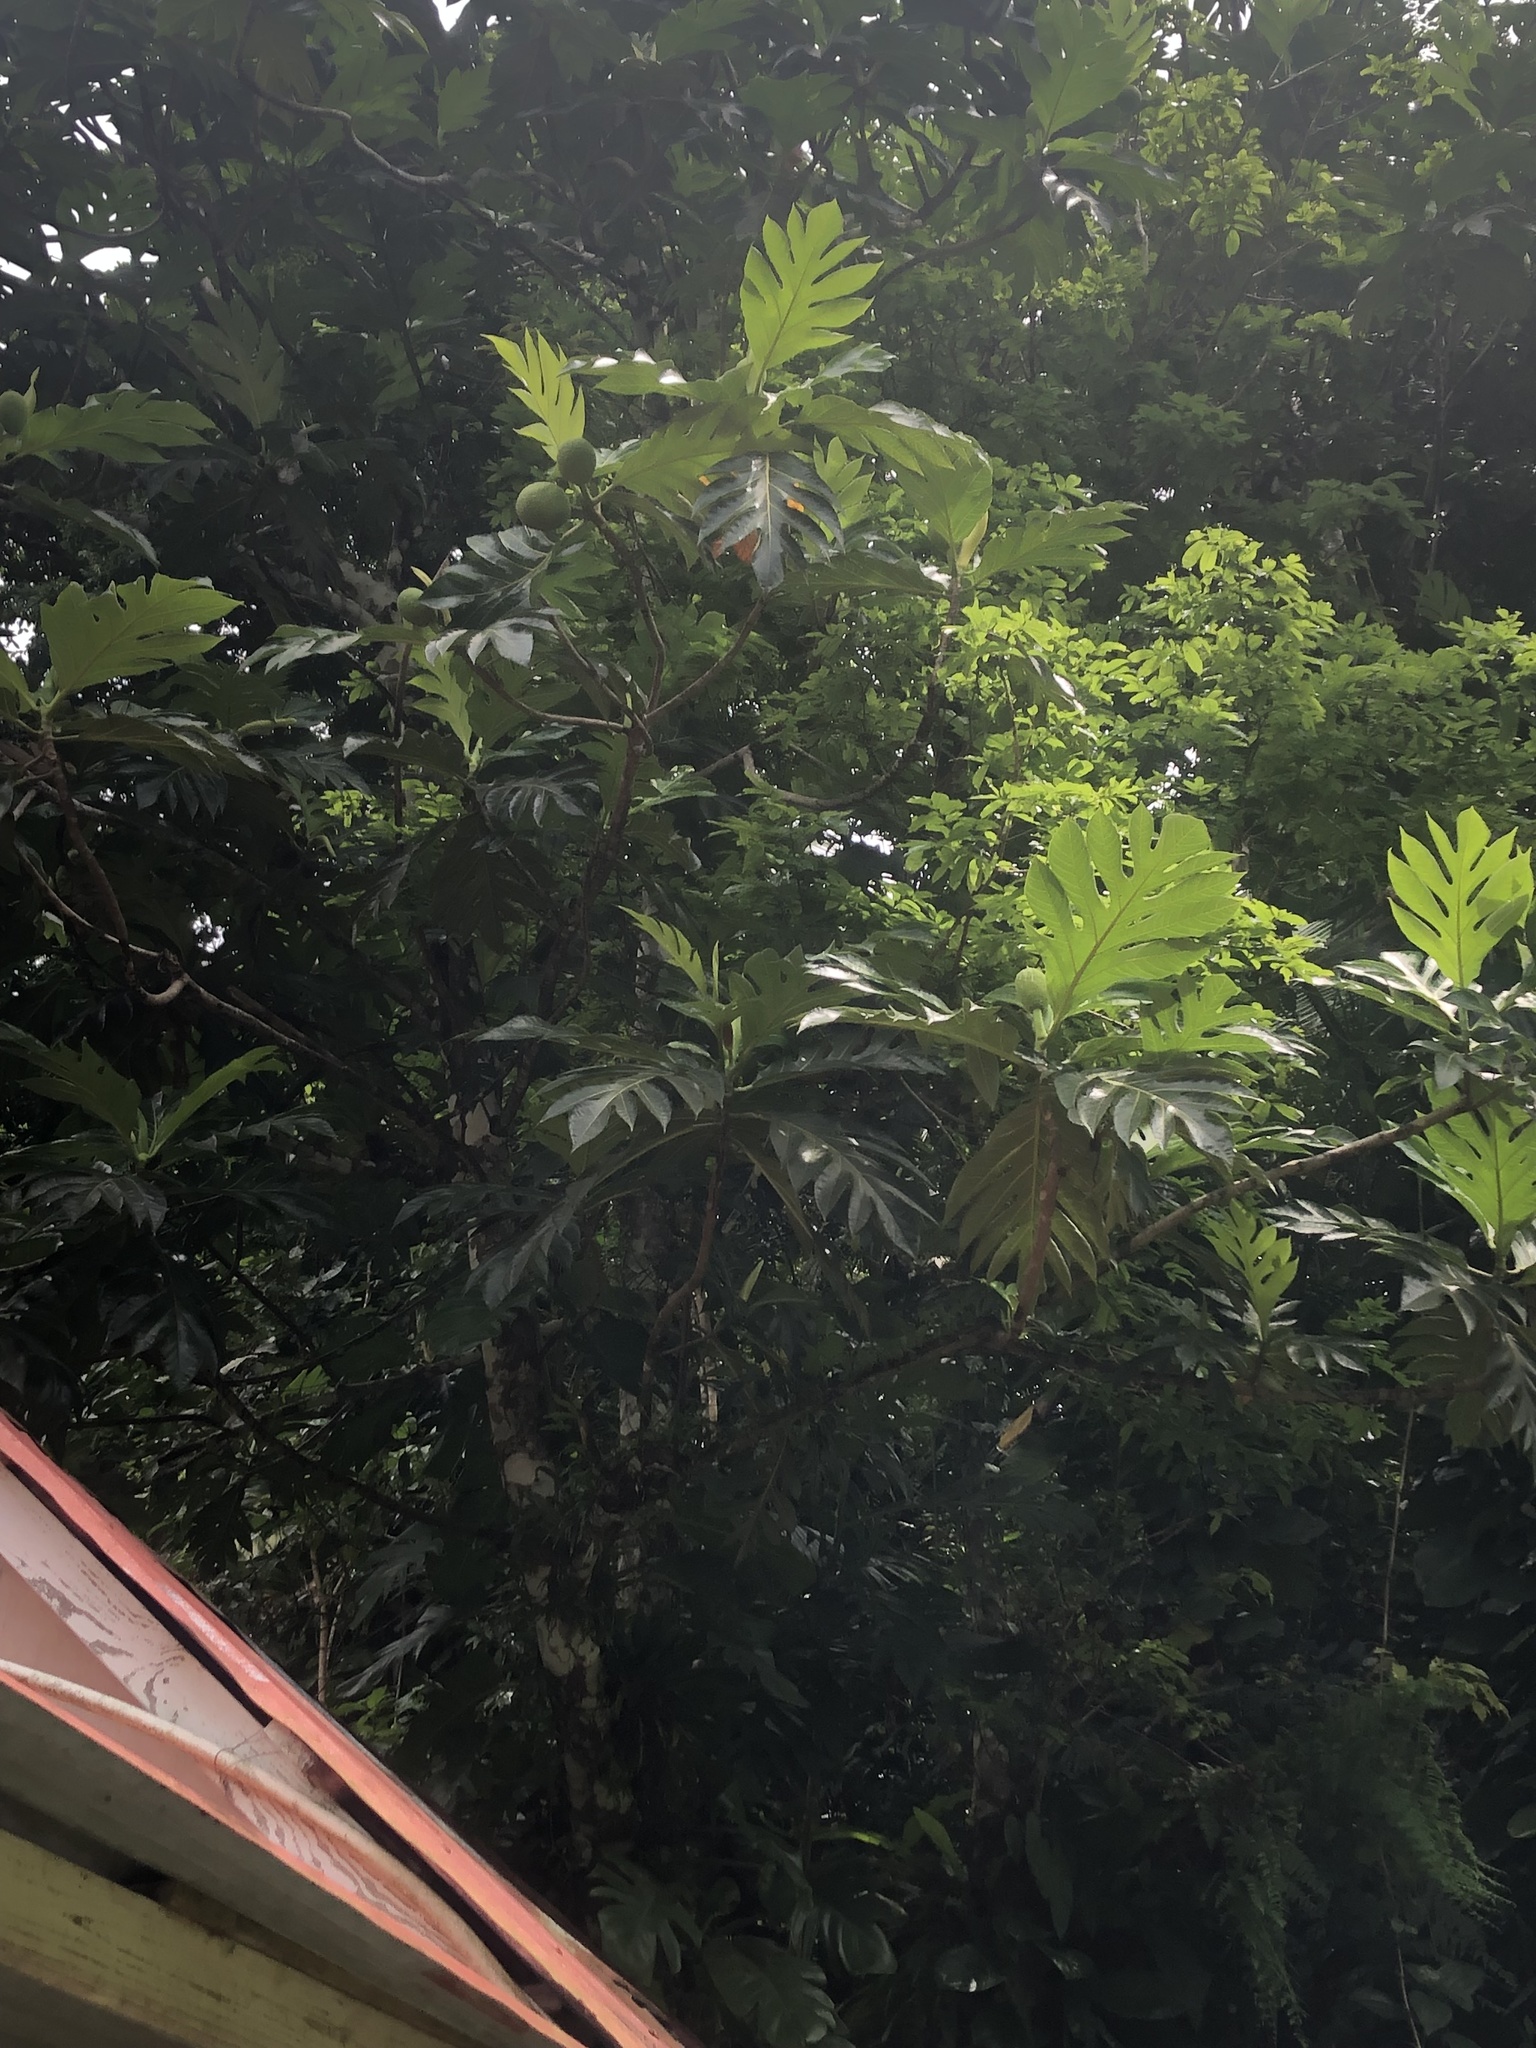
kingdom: Plantae
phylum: Tracheophyta
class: Magnoliopsida
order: Rosales
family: Moraceae
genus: Artocarpus
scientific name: Artocarpus altilis
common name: Breadfruit
